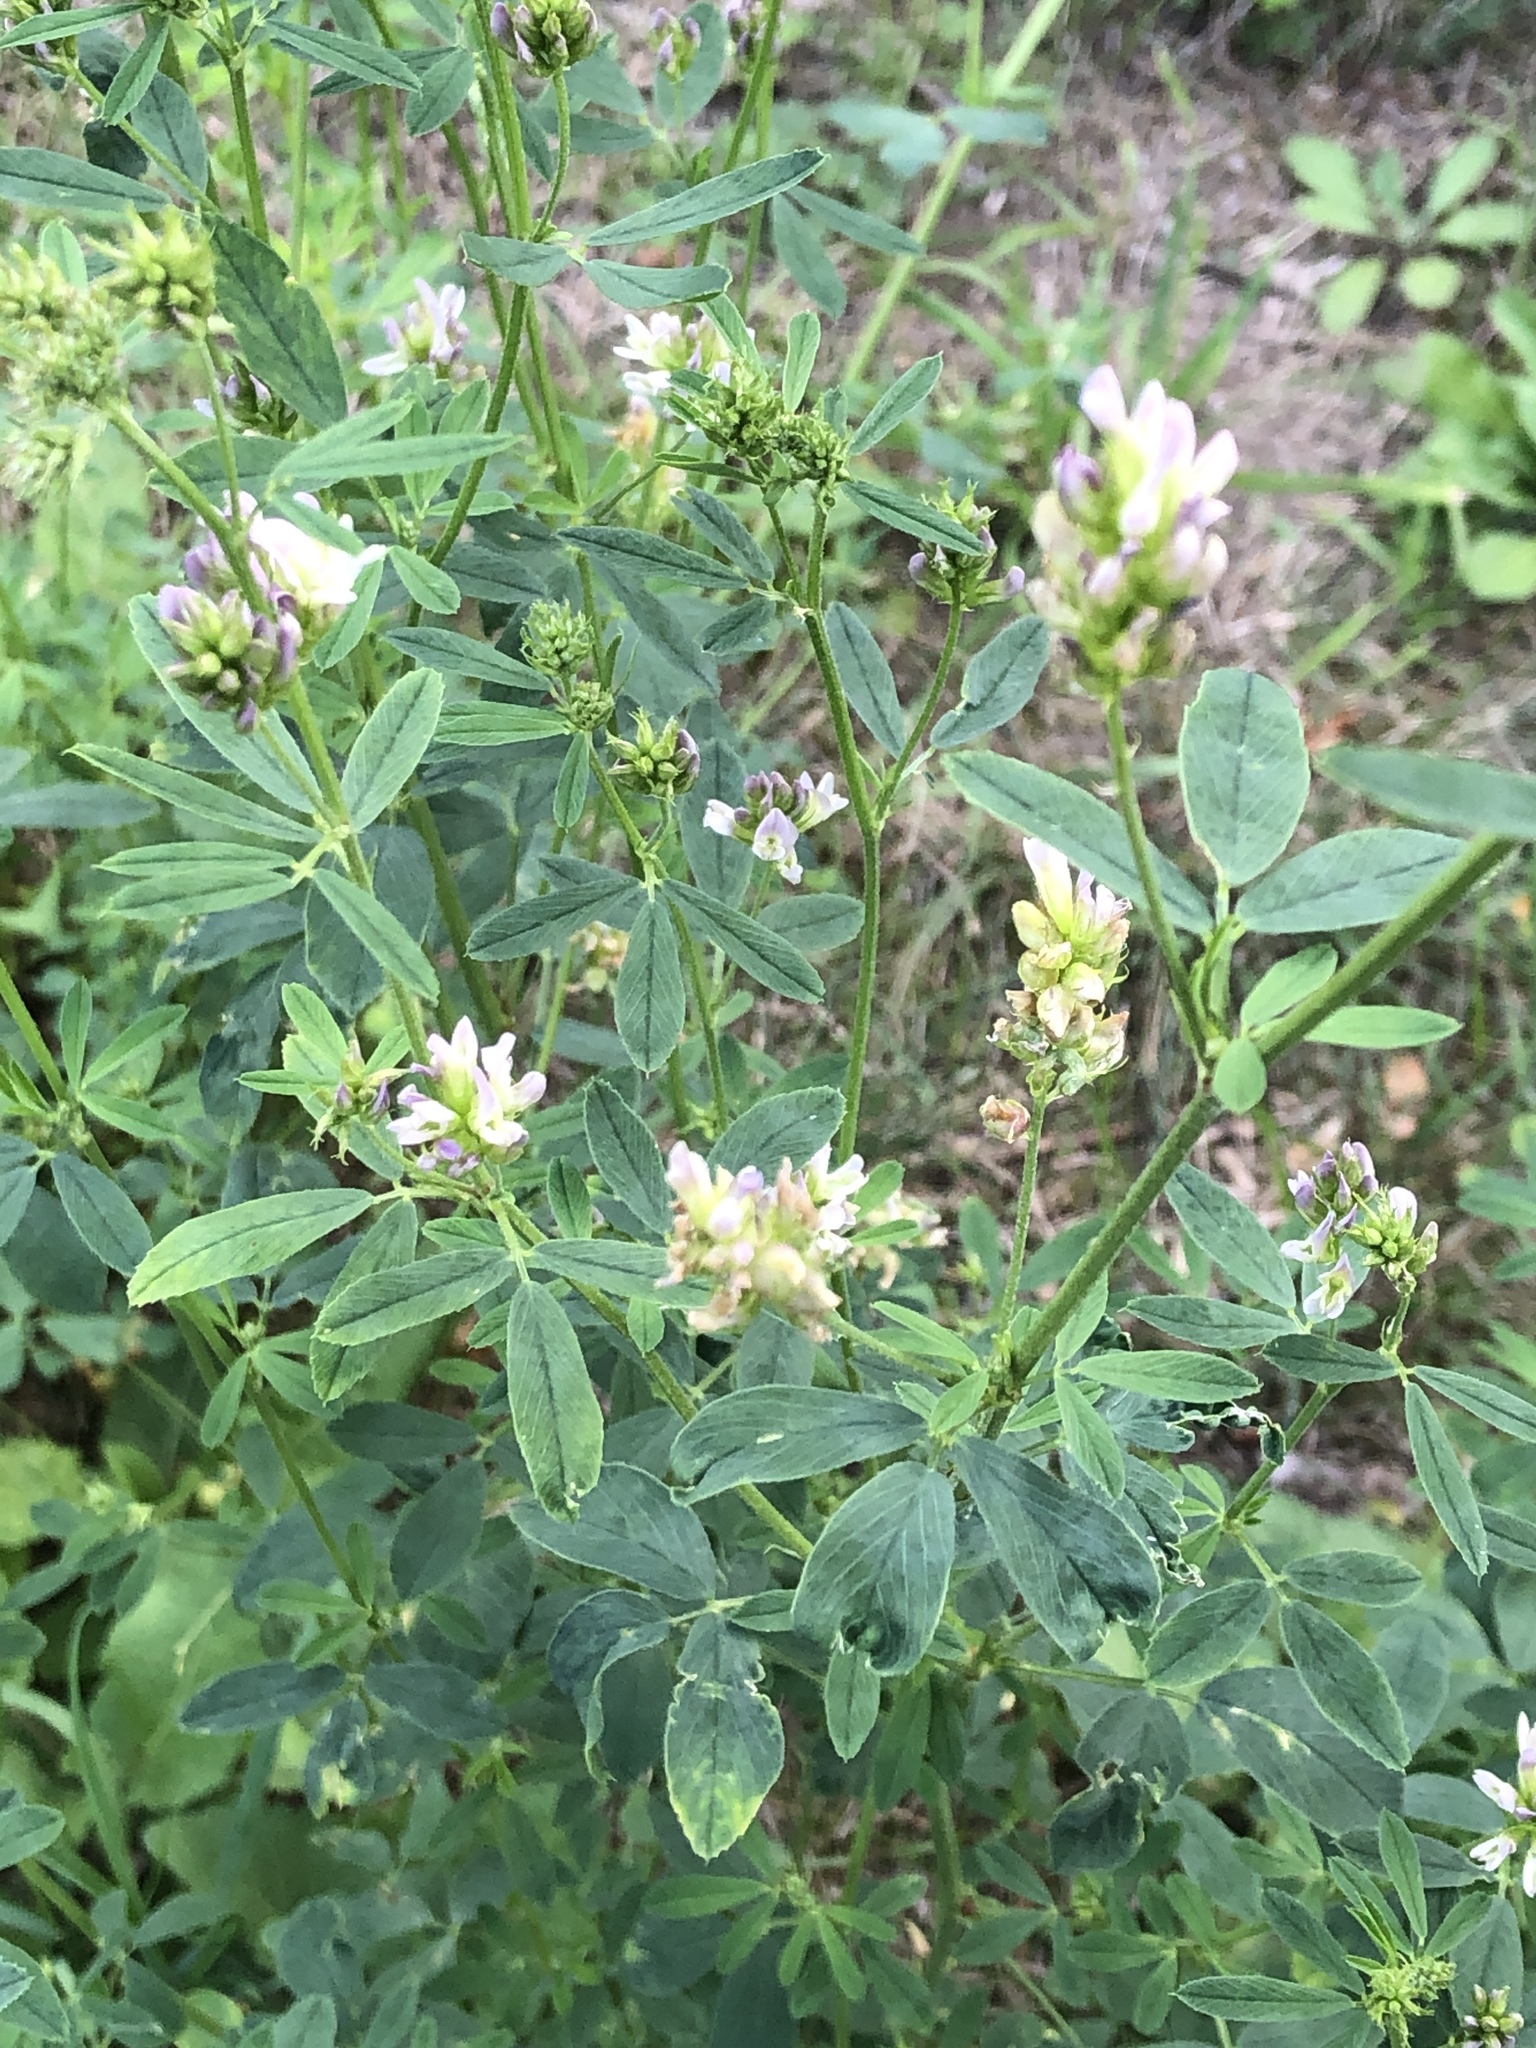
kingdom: Plantae
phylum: Tracheophyta
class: Magnoliopsida
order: Fabales
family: Fabaceae
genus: Medicago
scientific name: Medicago varia
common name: Sand lucerne
